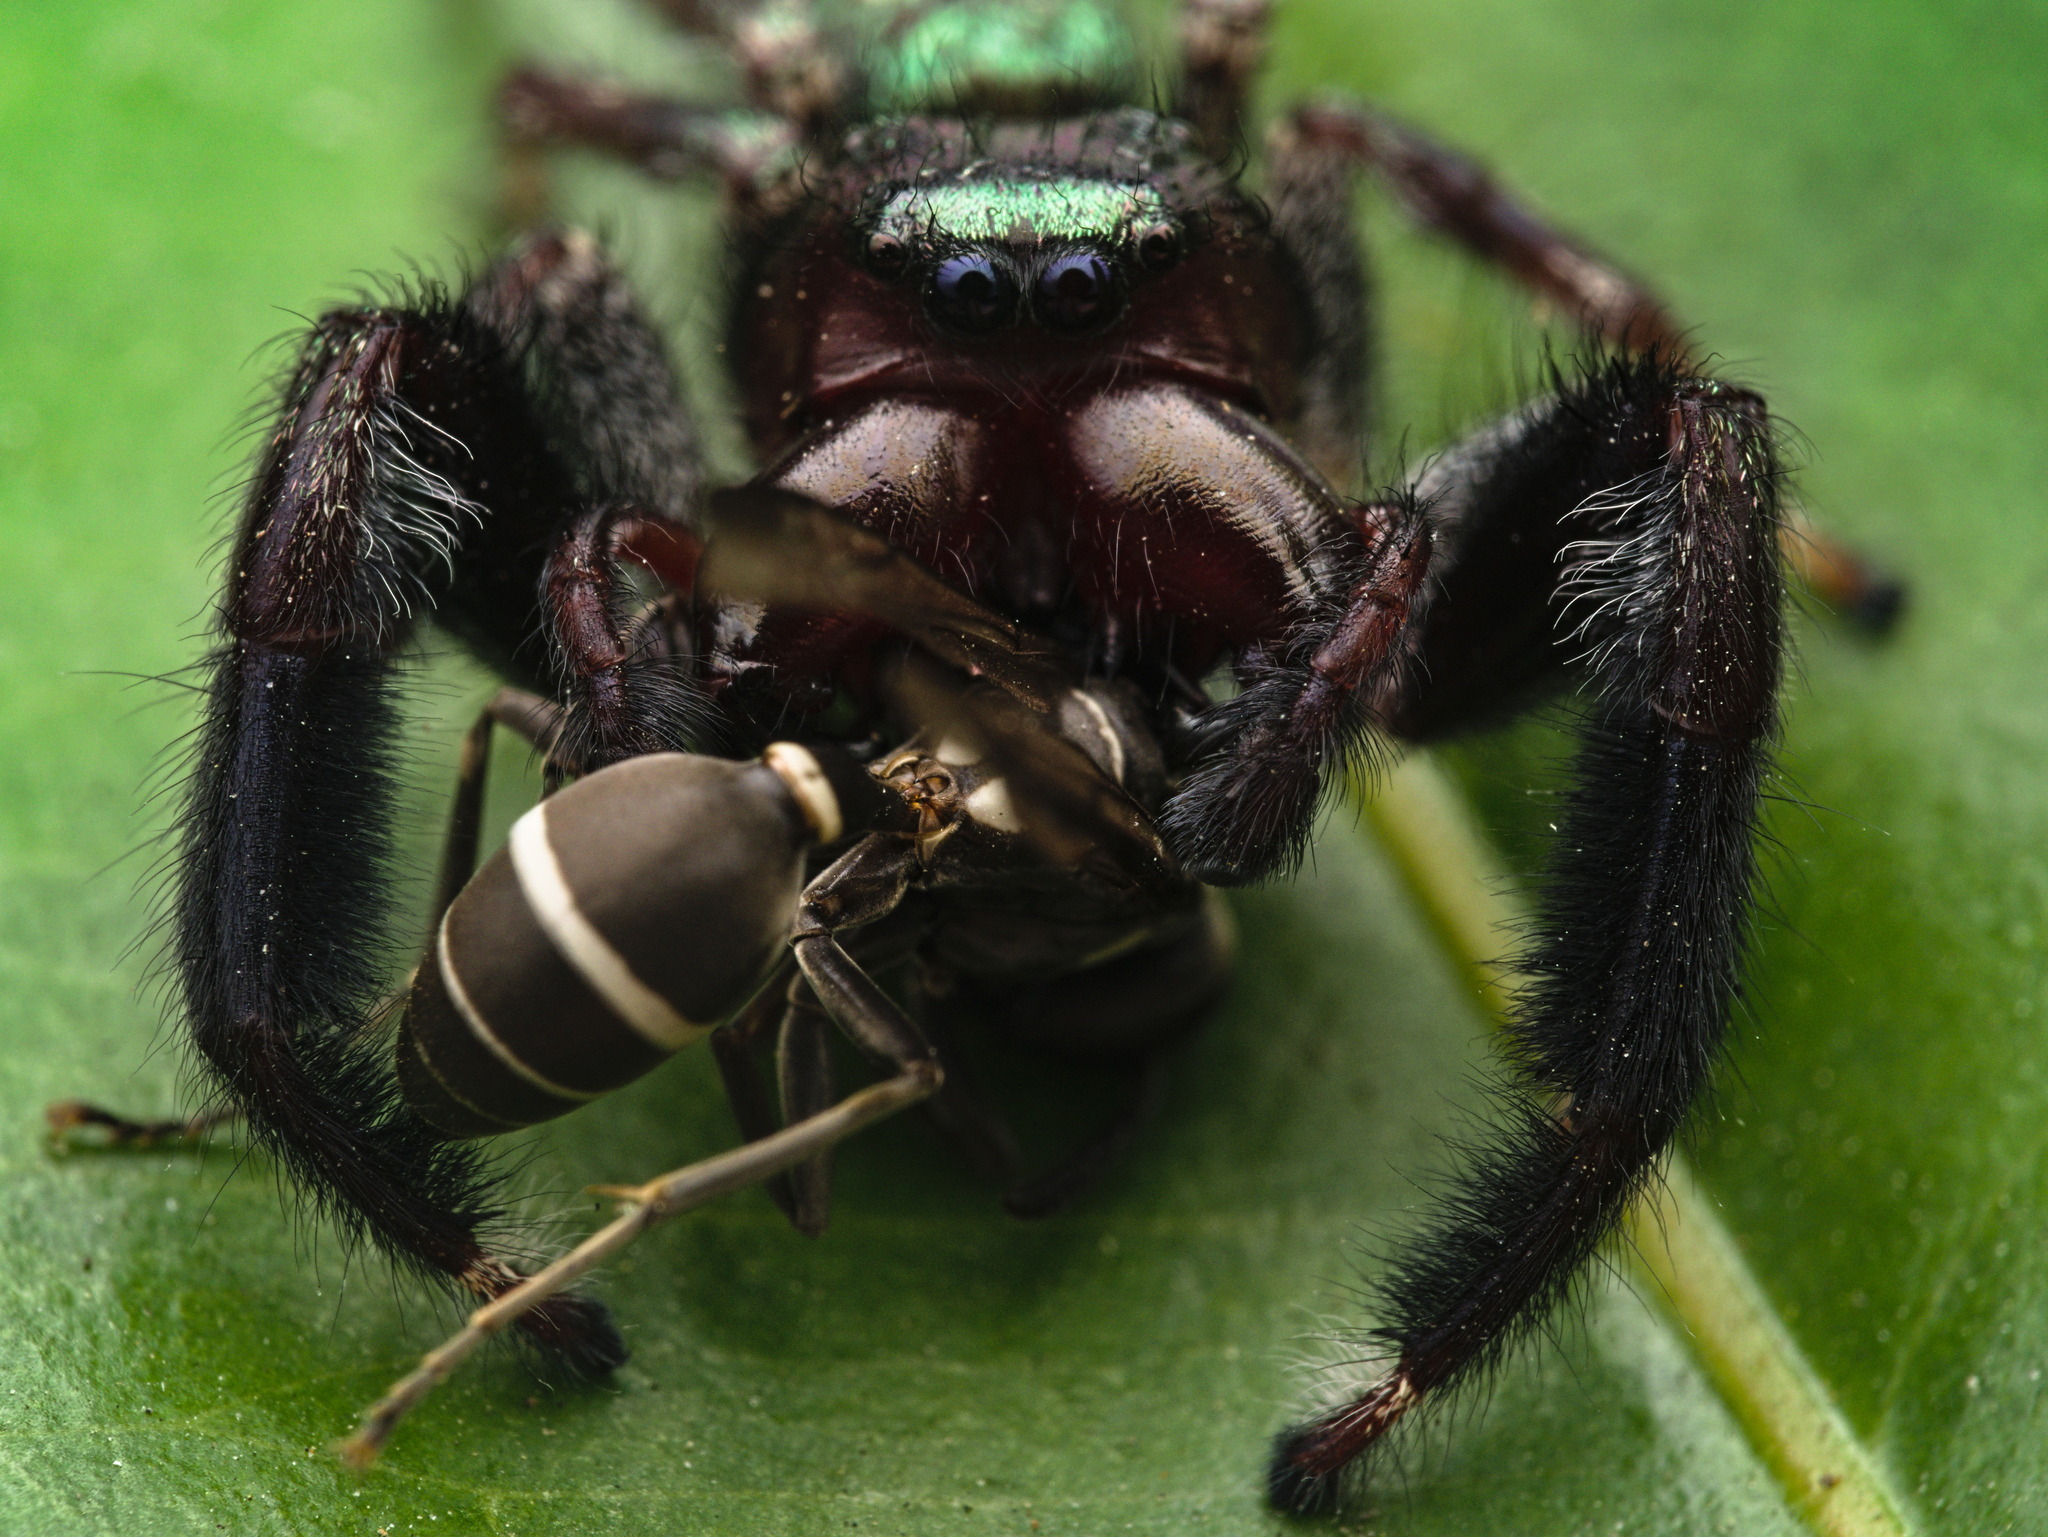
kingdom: Animalia
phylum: Arthropoda
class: Arachnida
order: Araneae
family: Salticidae
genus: Paraphidippus
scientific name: Paraphidippus fartilis
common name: Jumping spiders
